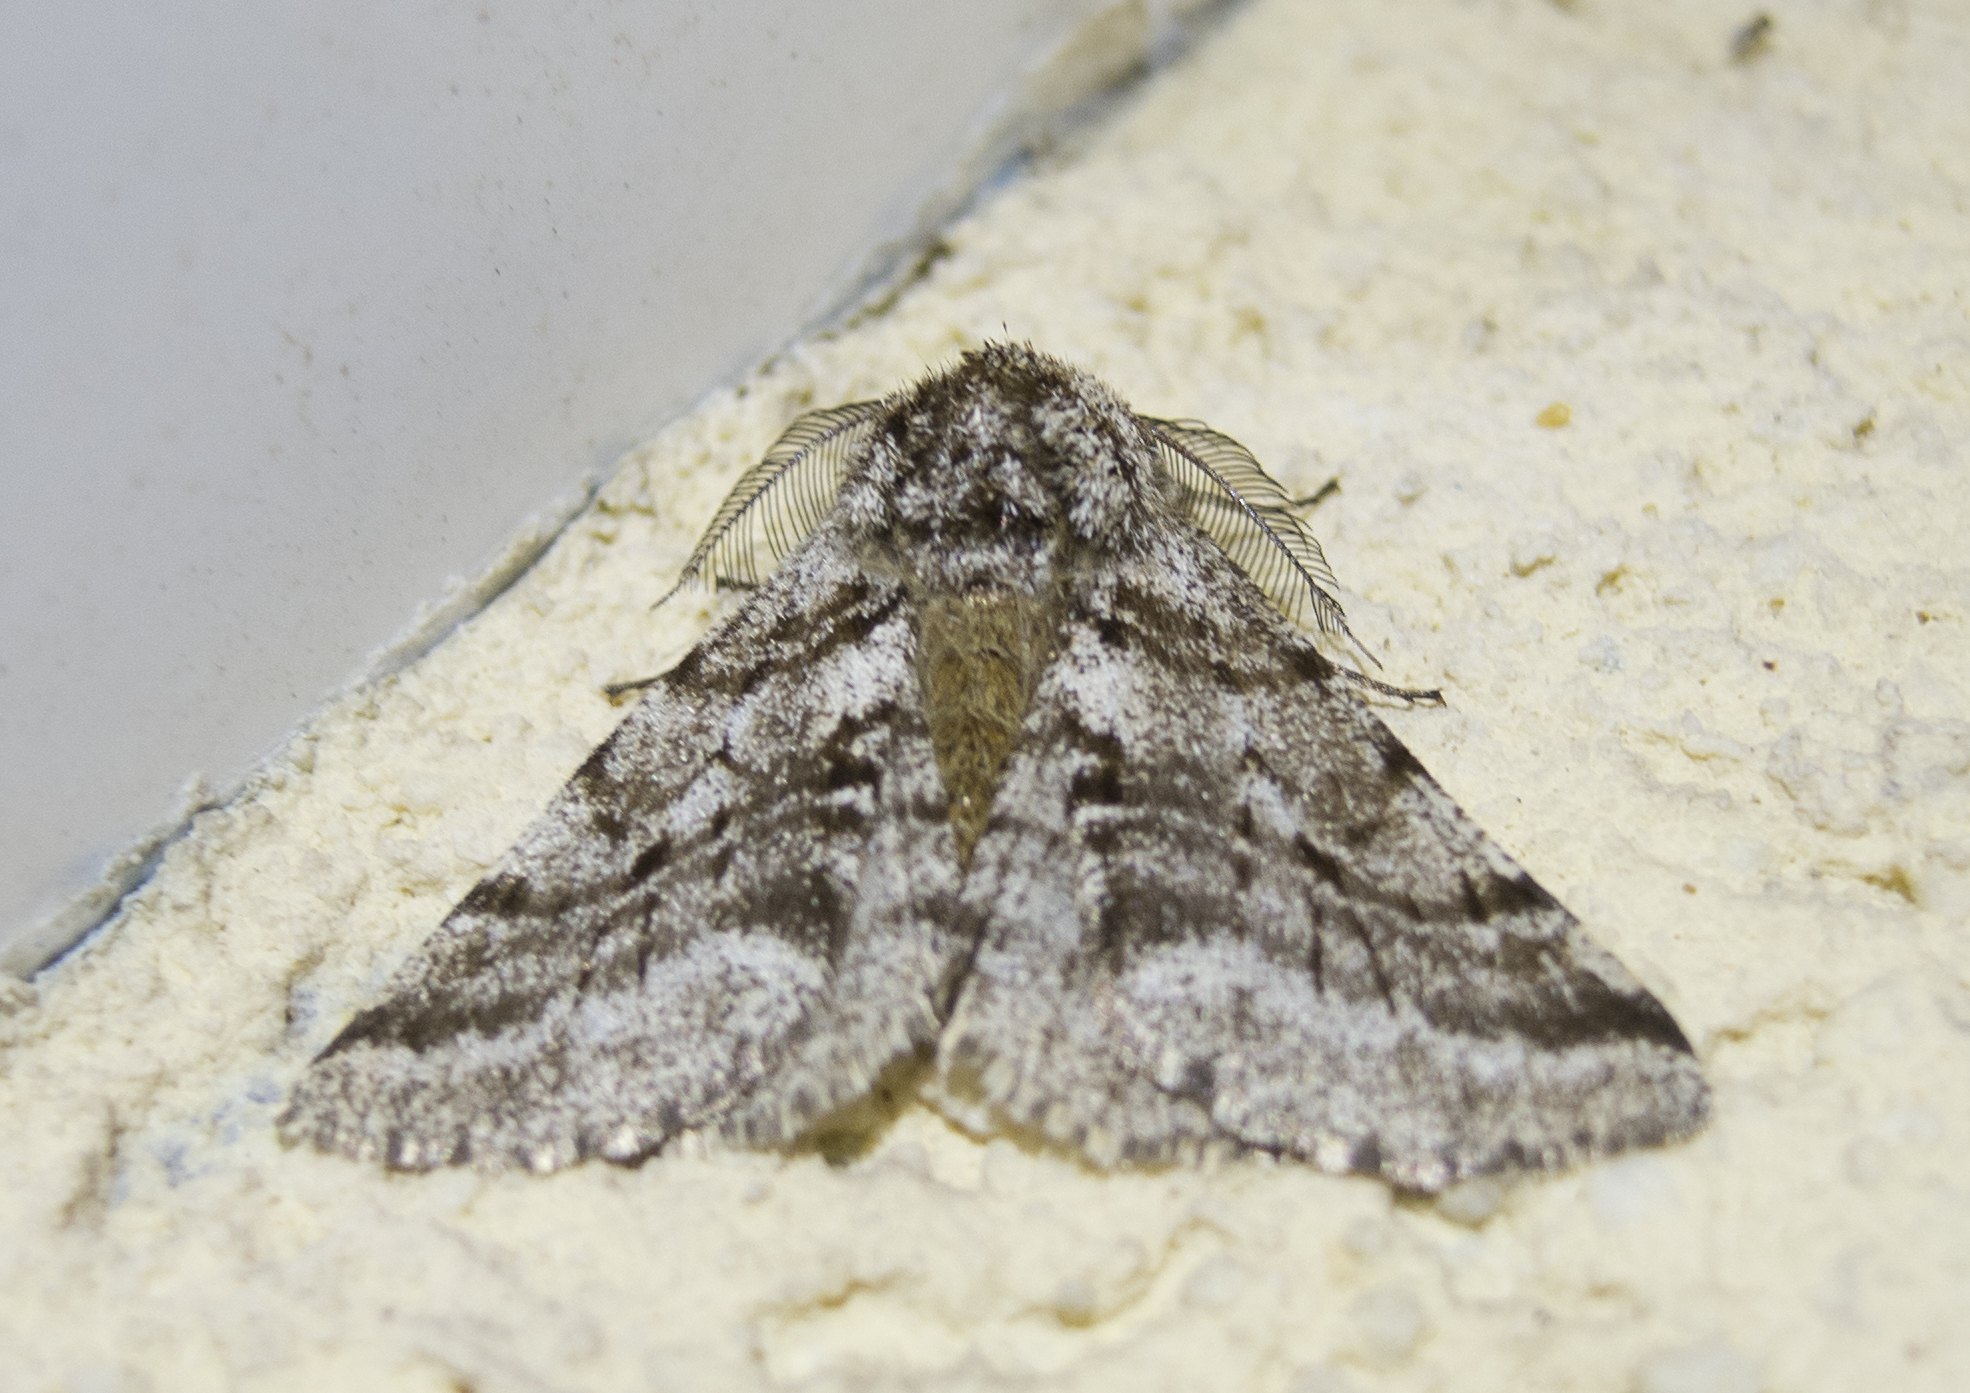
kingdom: Animalia
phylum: Arthropoda
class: Insecta
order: Lepidoptera
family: Geometridae
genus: Lycia
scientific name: Lycia hirtaria
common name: Brindled beauty
